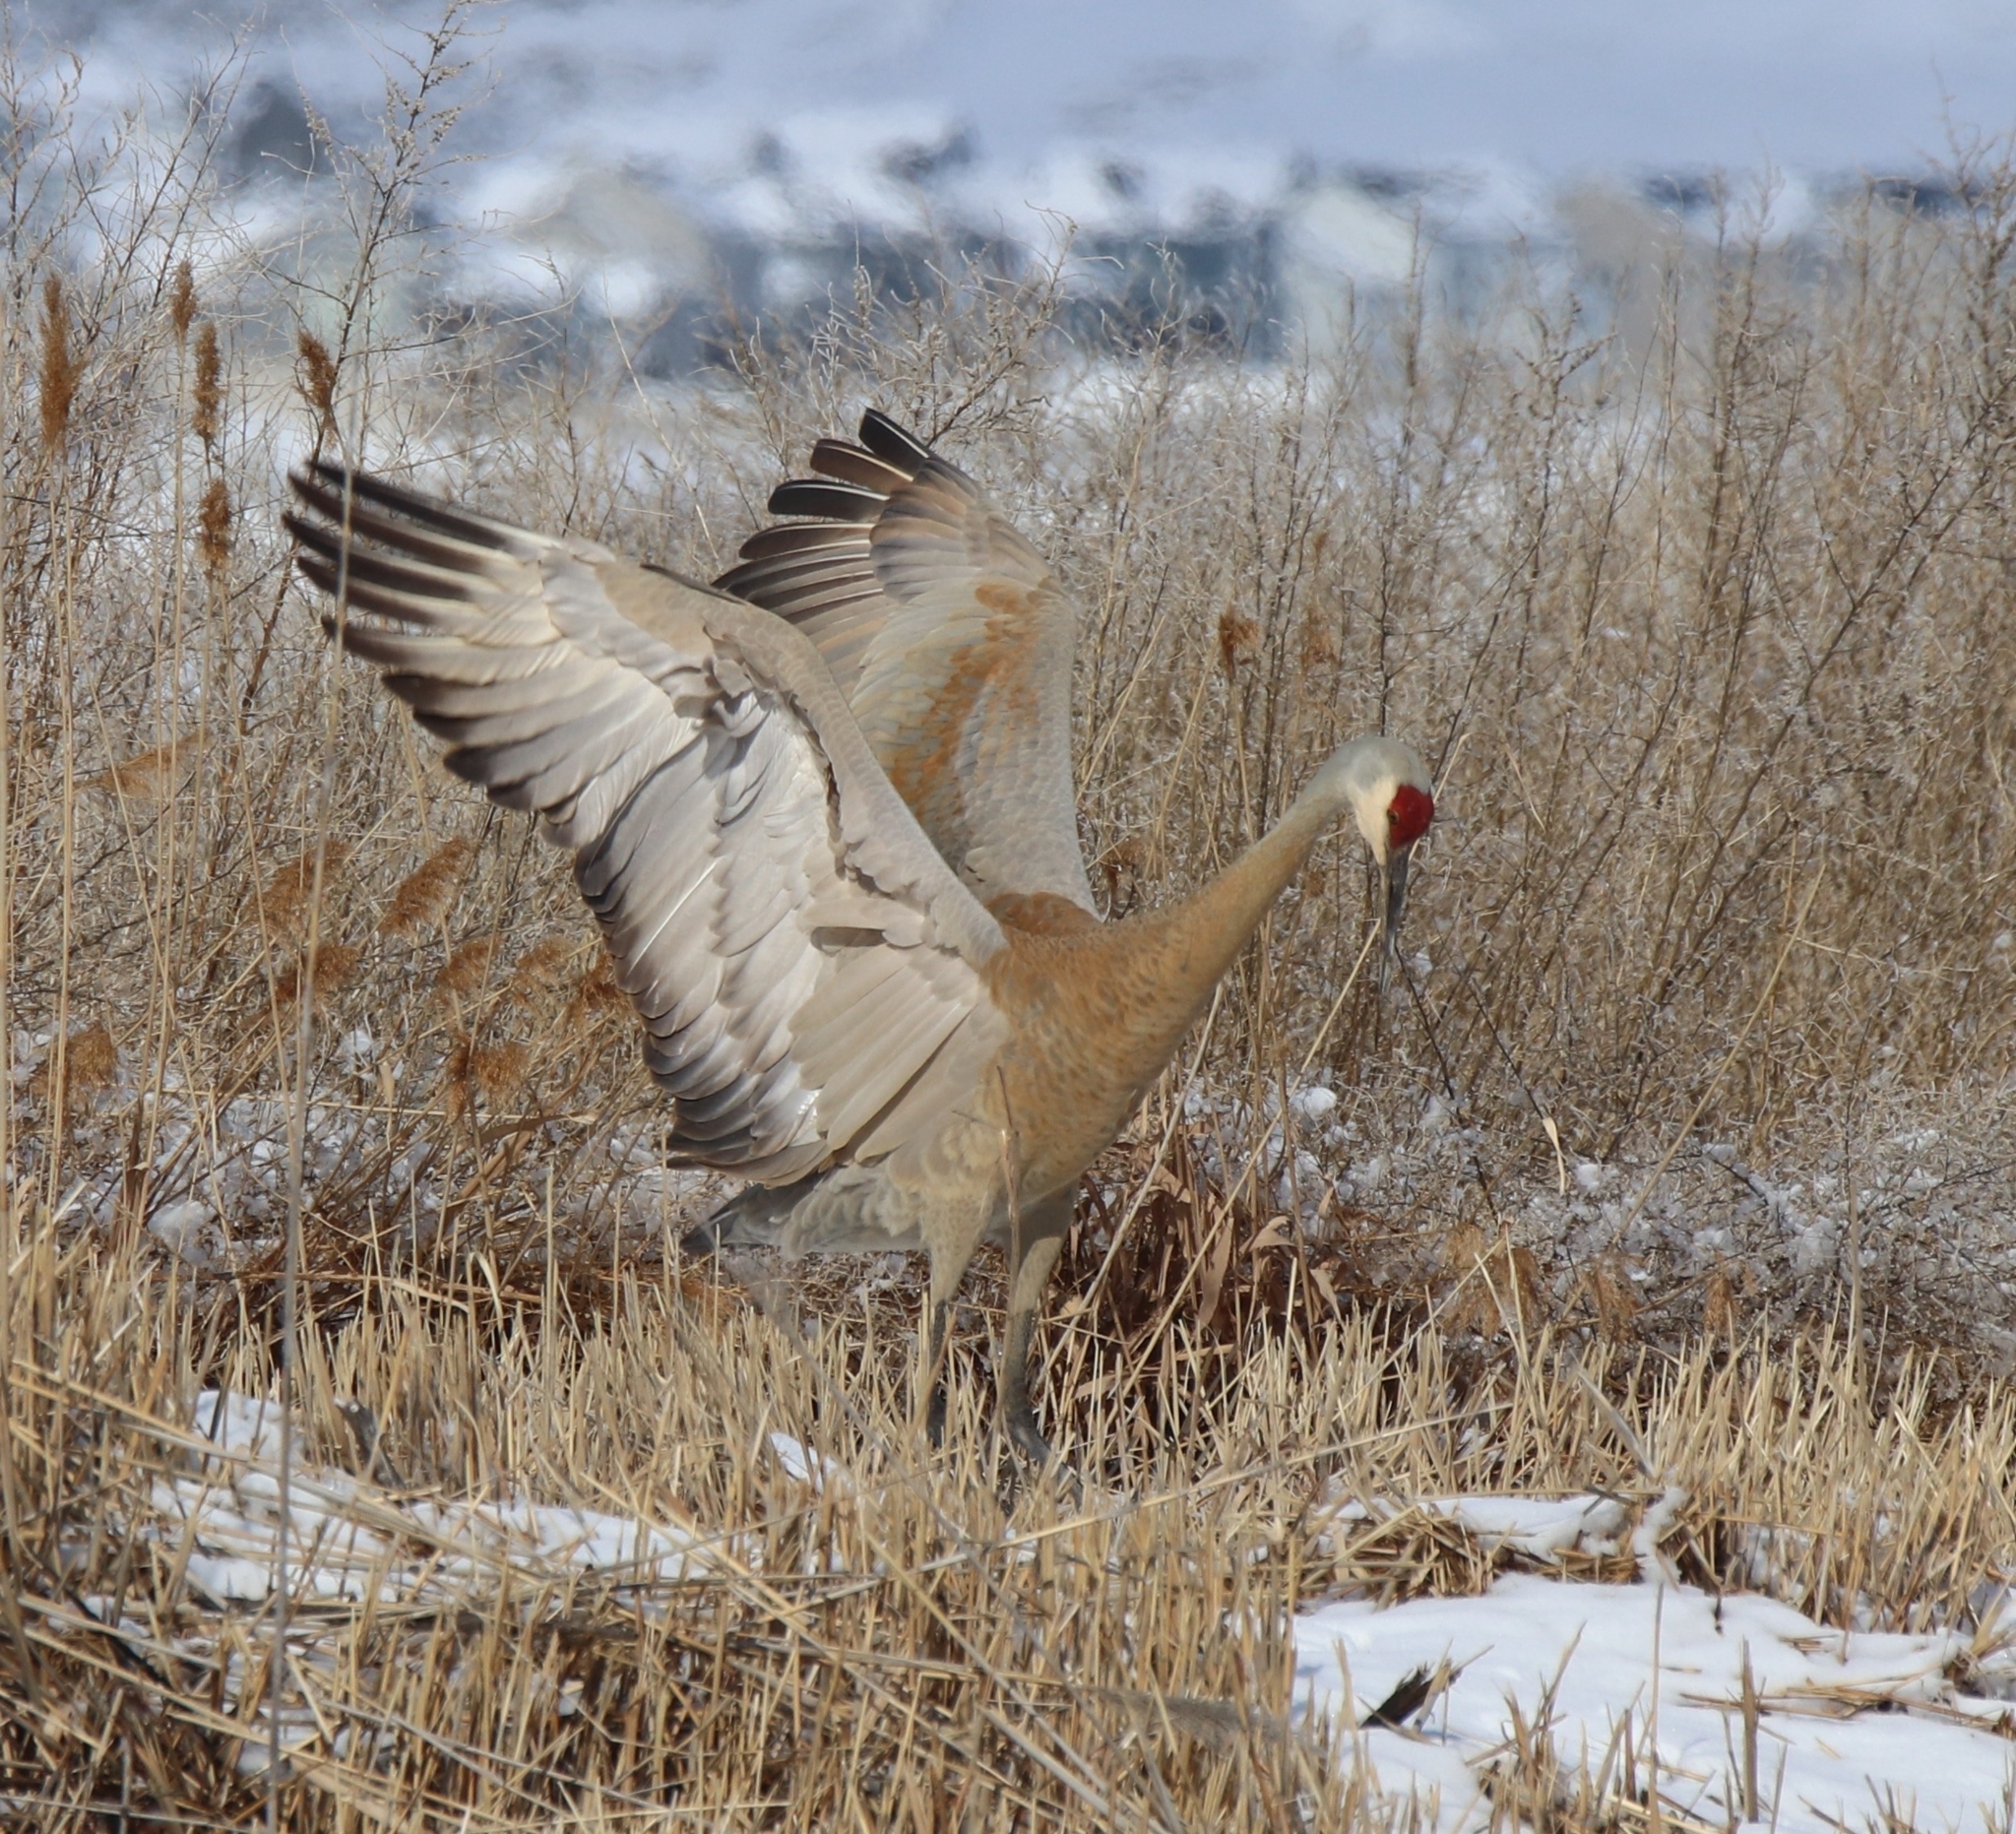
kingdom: Animalia
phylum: Chordata
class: Aves
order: Gruiformes
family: Gruidae
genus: Grus
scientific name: Grus canadensis
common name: Sandhill crane
